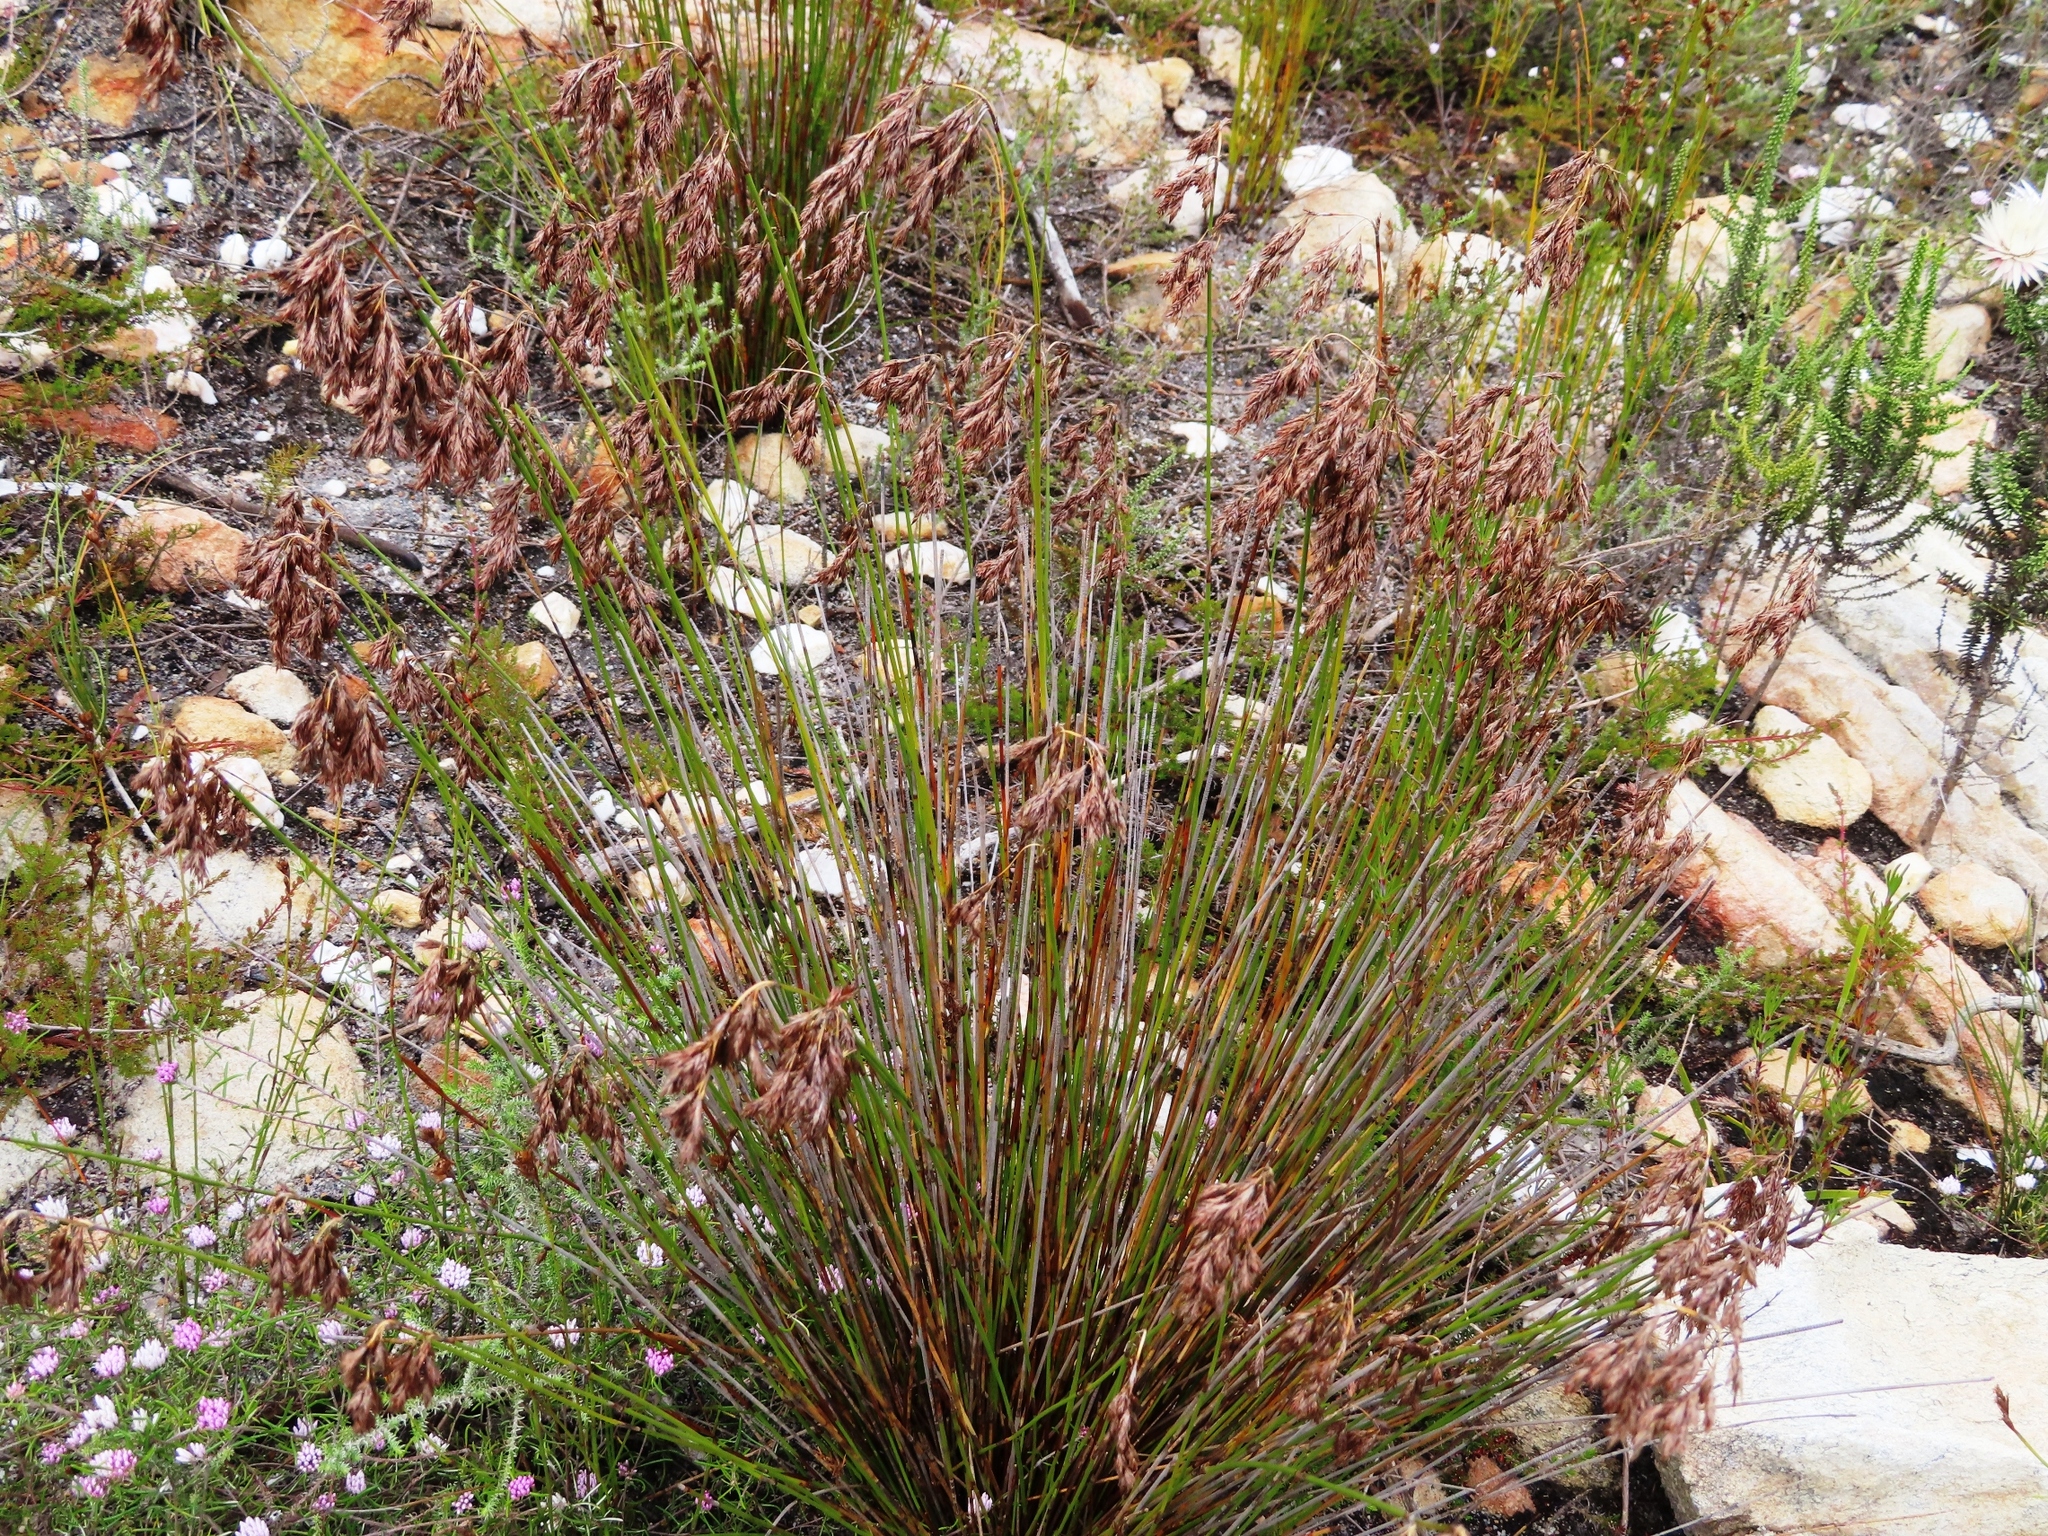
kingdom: Plantae
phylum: Tracheophyta
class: Liliopsida
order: Poales
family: Restionaceae
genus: Thamnochortus
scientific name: Thamnochortus fraternus
